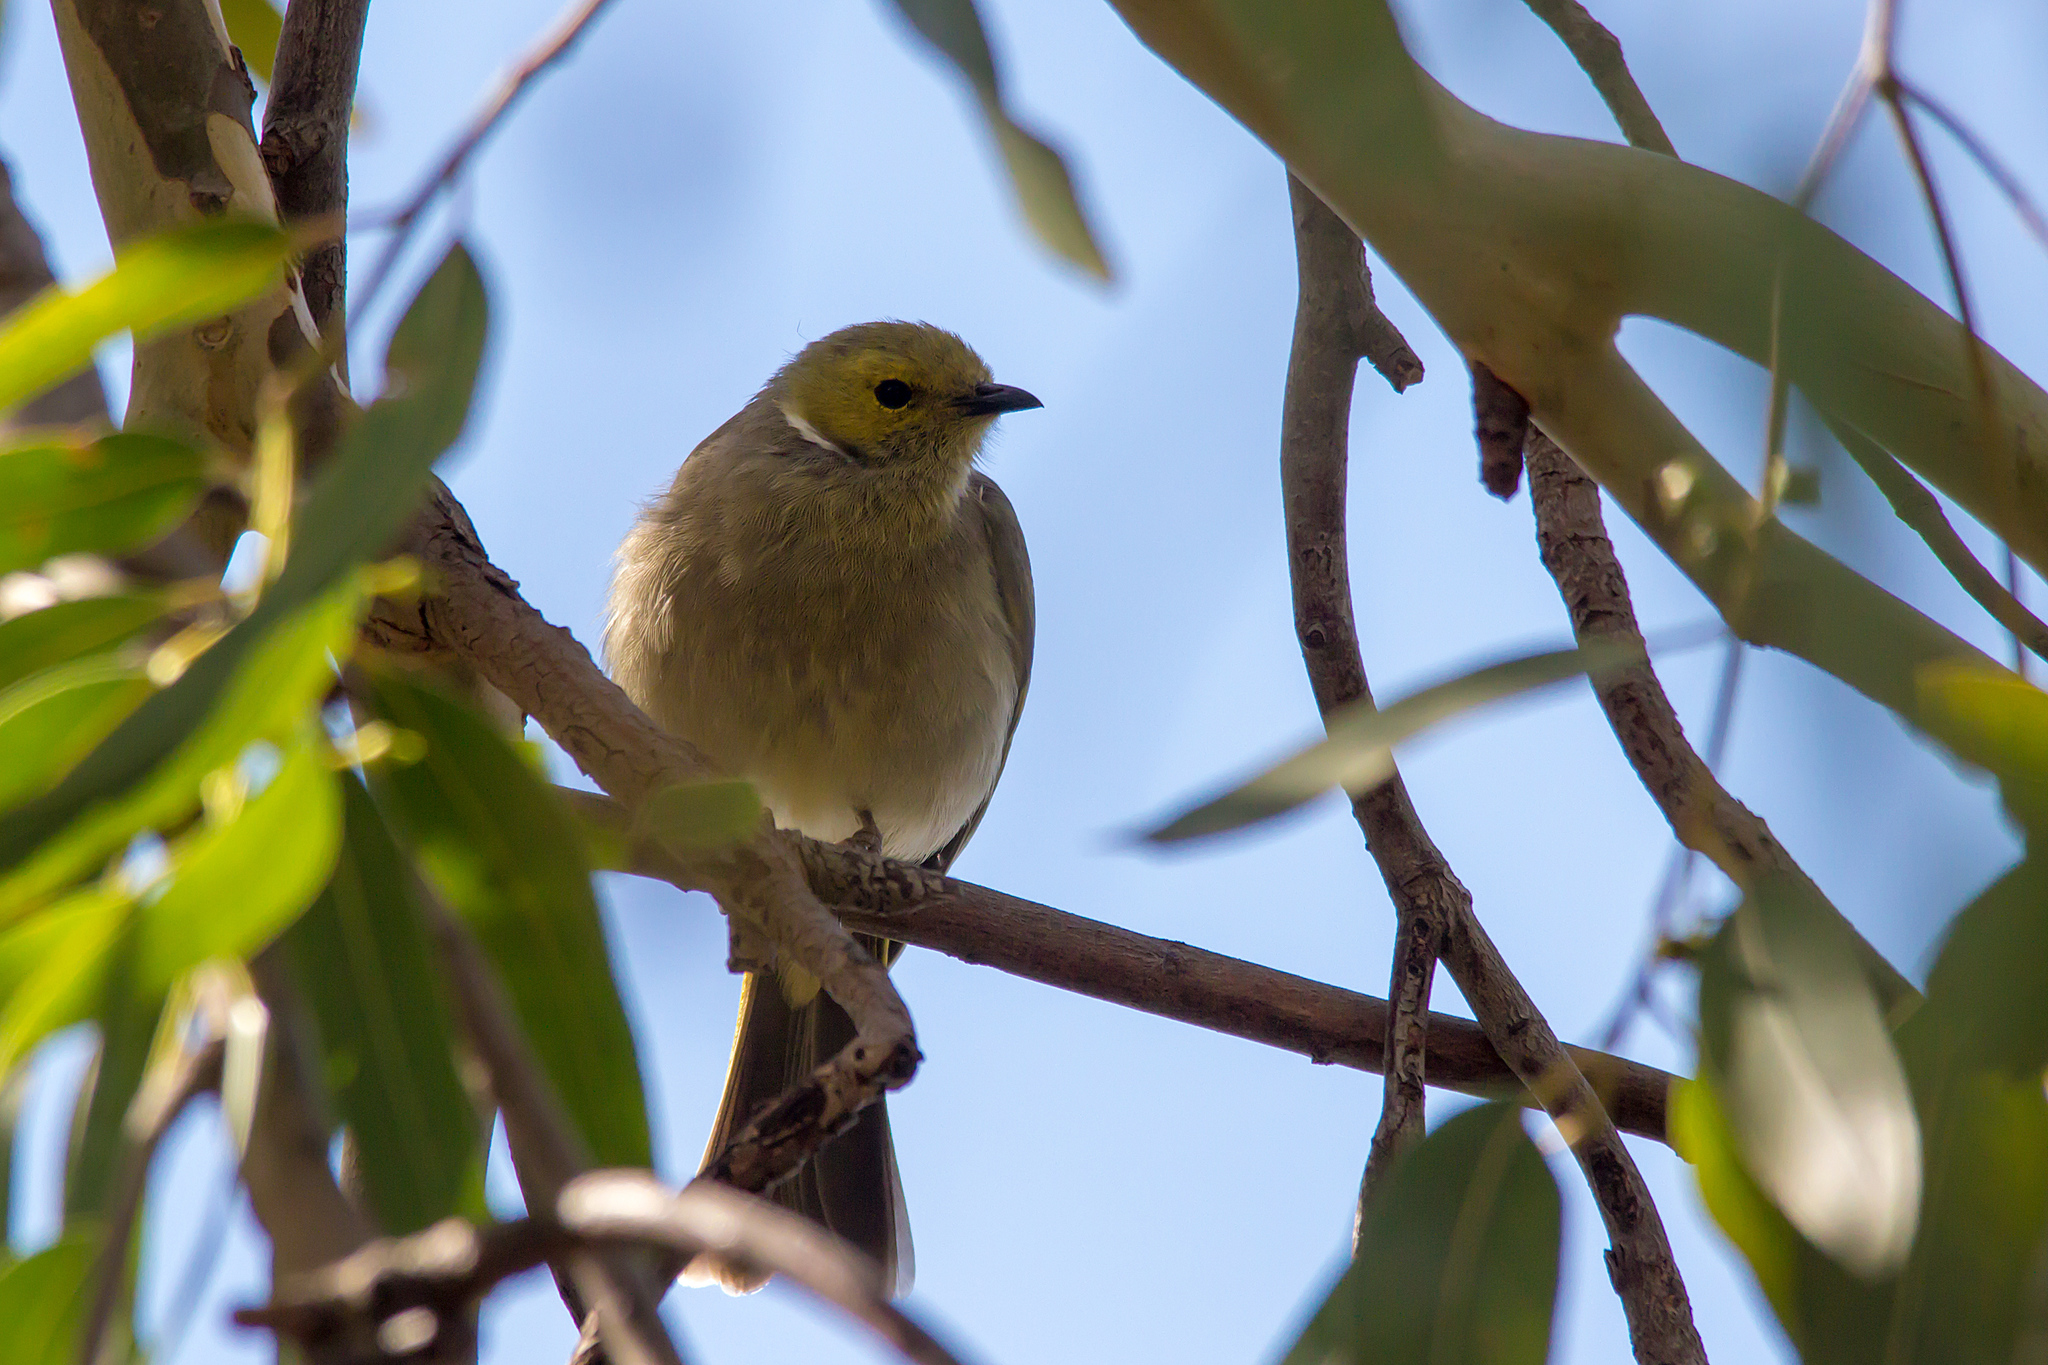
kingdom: Animalia
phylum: Chordata
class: Aves
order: Passeriformes
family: Meliphagidae
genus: Ptilotula
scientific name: Ptilotula penicillata
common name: White-plumed honeyeater
